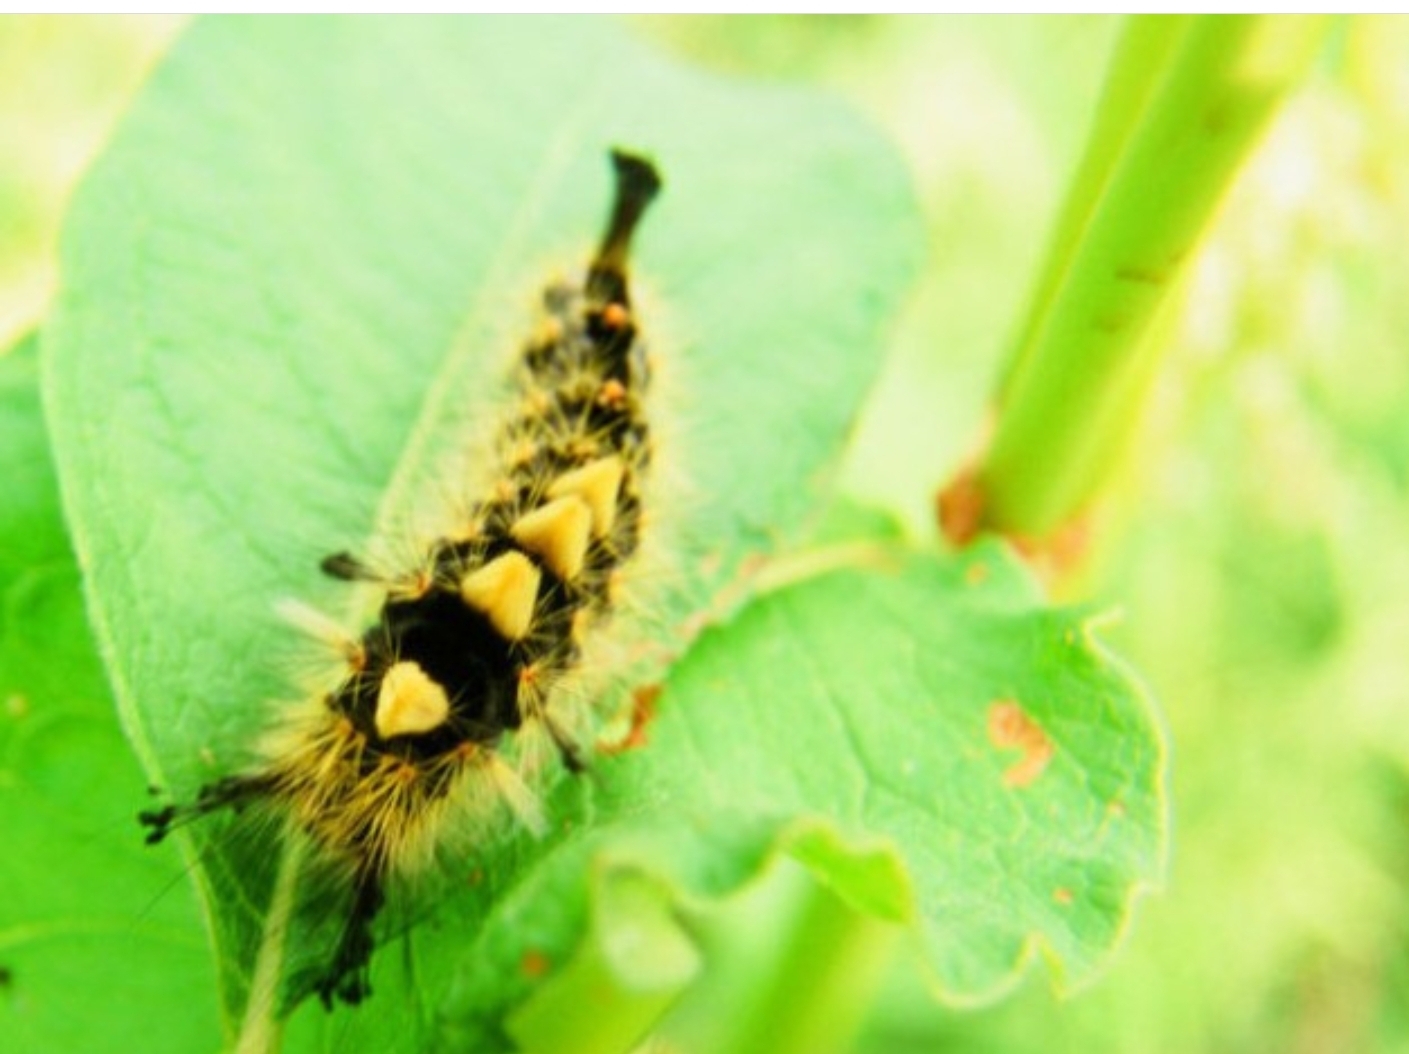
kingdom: Animalia
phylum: Arthropoda
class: Insecta
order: Lepidoptera
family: Erebidae
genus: Orgyia
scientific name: Orgyia antiqua
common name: Vapourer
